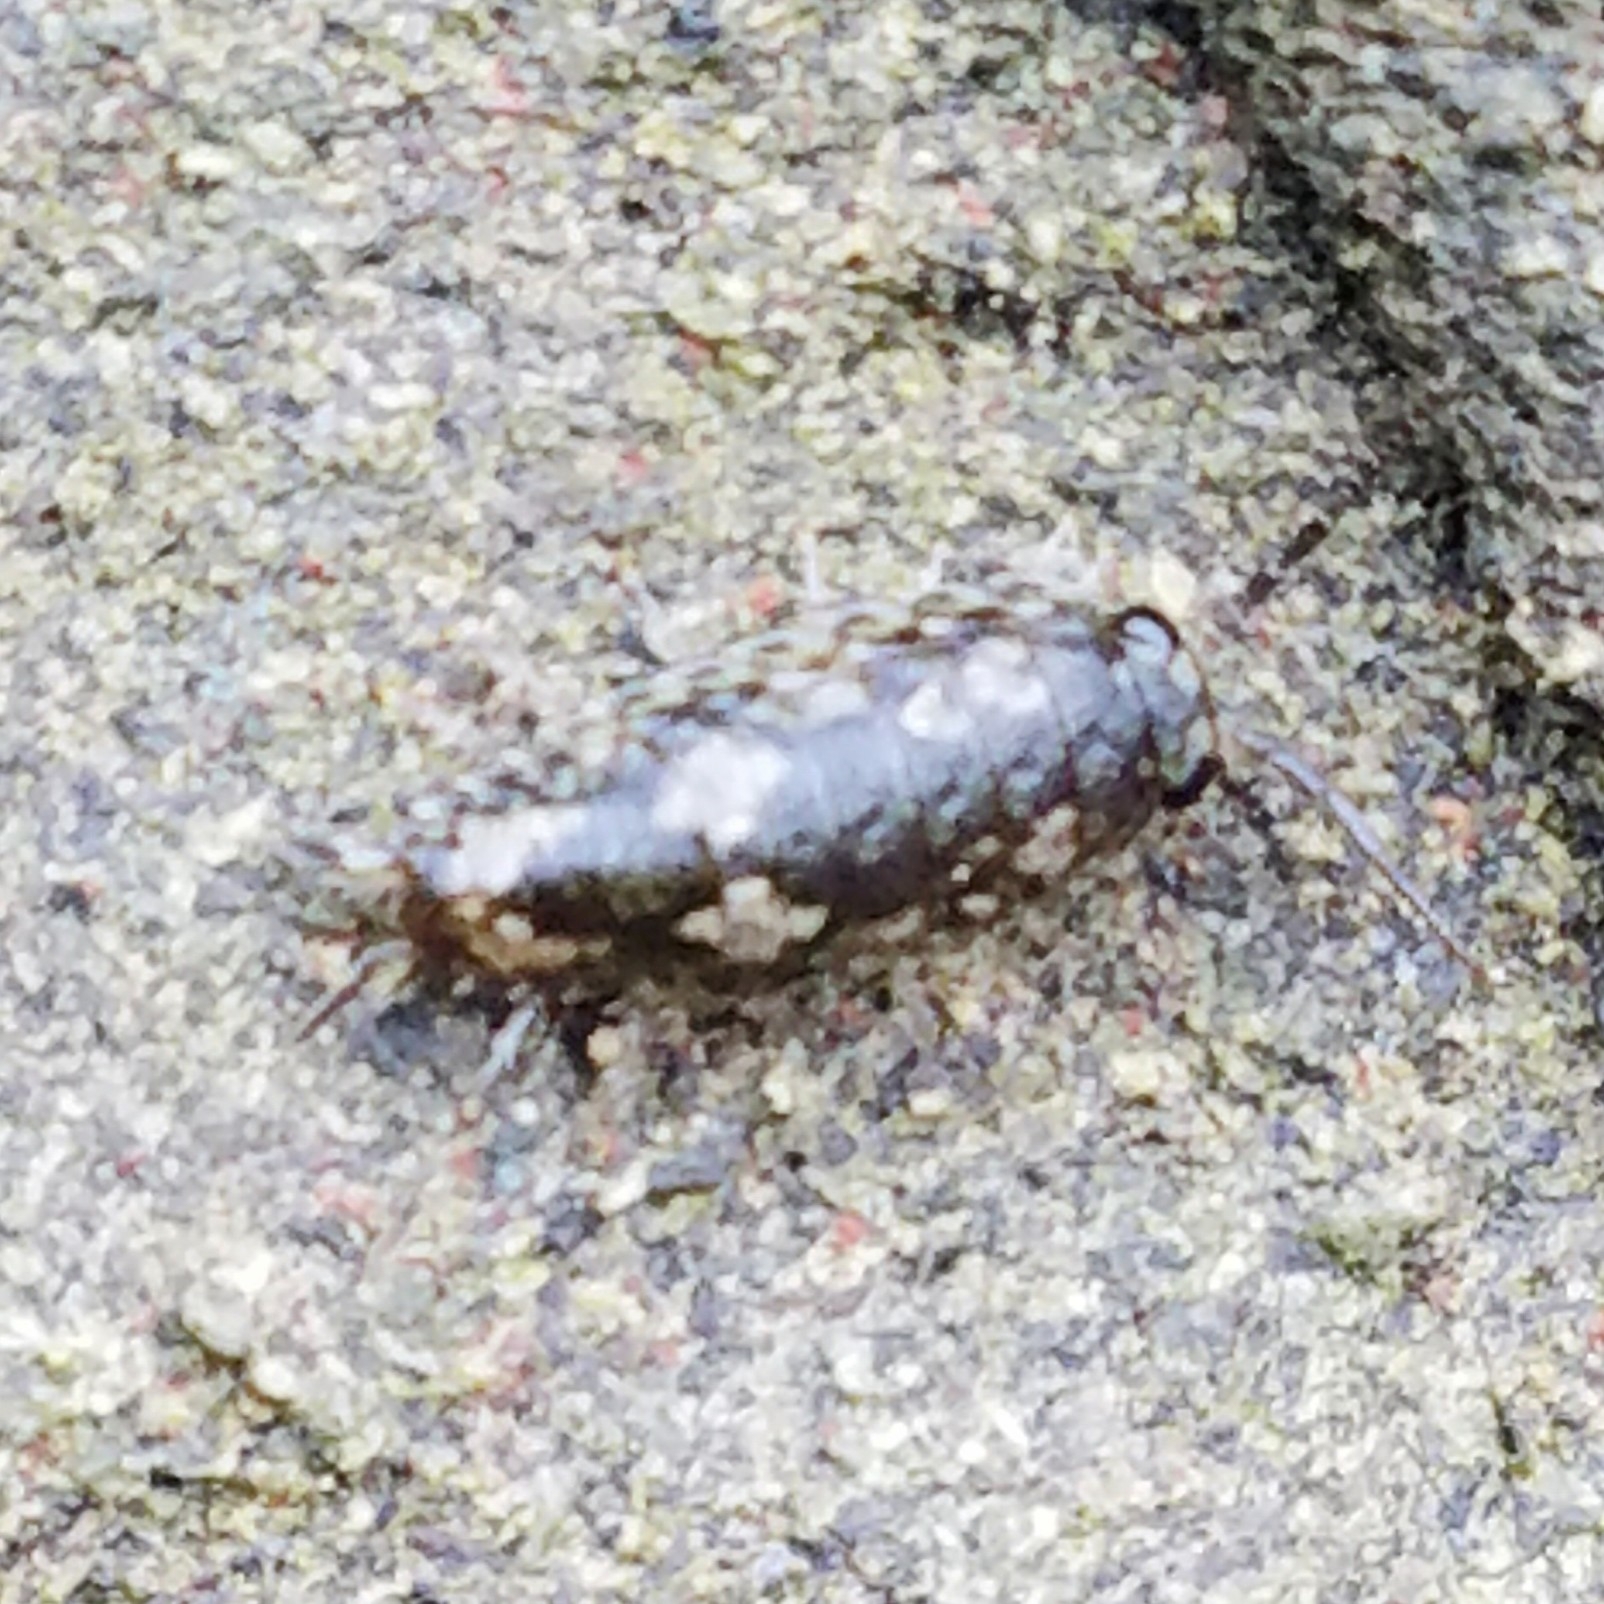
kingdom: Animalia
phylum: Arthropoda
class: Malacostraca
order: Isopoda
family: Ligiidae
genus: Ligia
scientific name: Ligia pallasii
